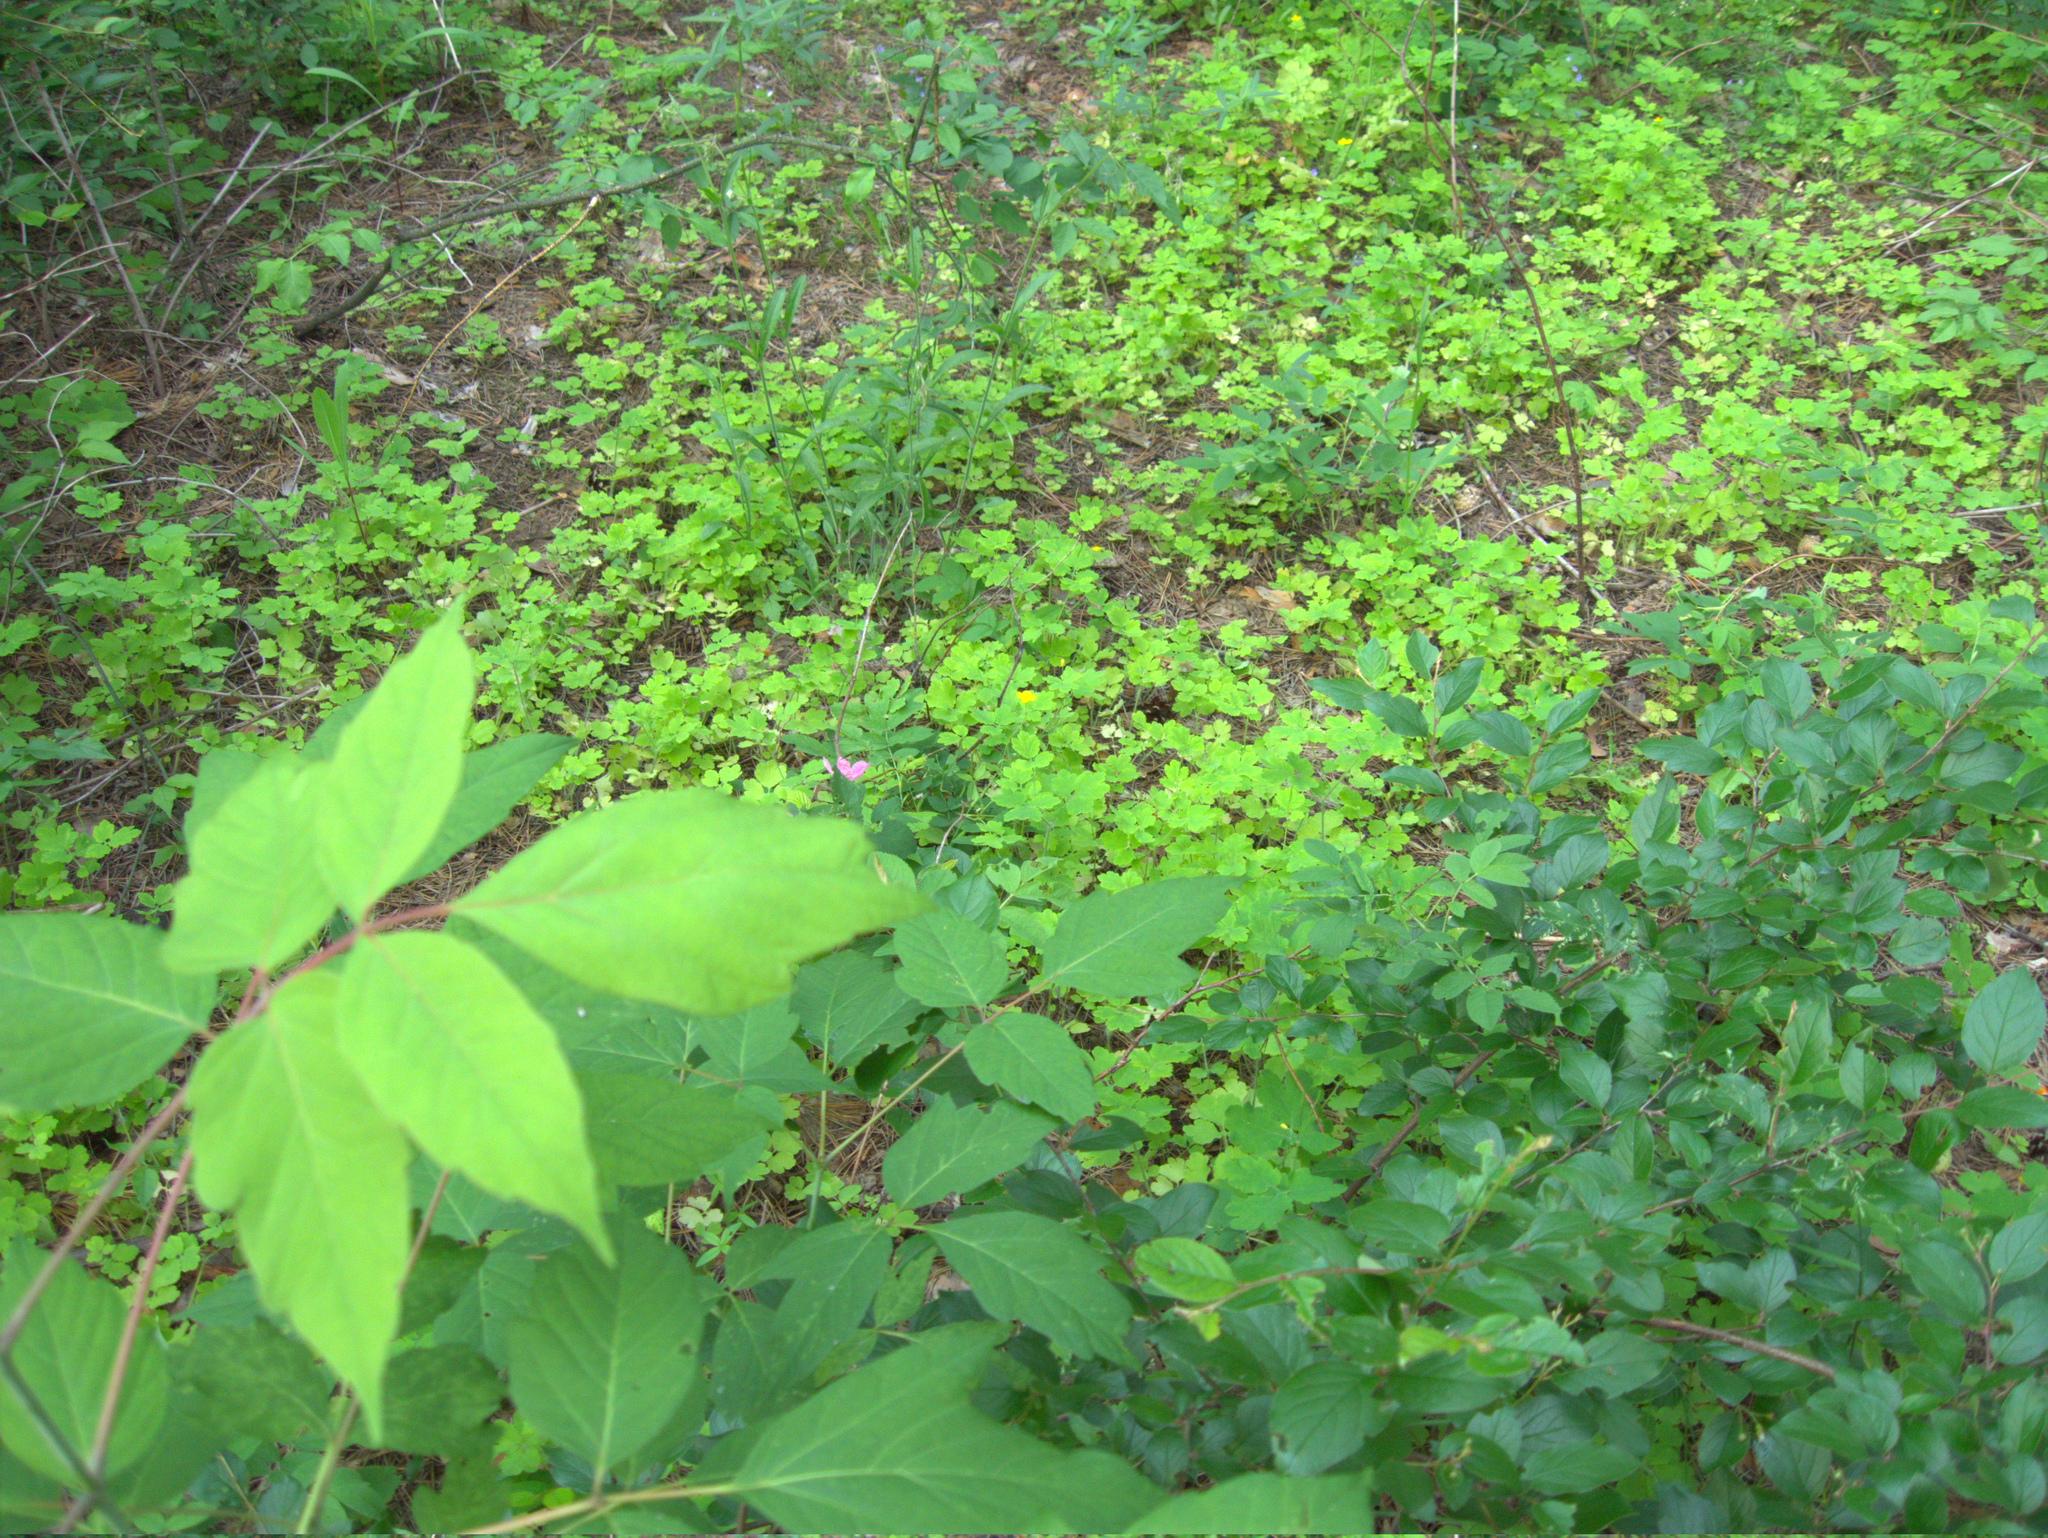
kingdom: Plantae
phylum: Tracheophyta
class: Magnoliopsida
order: Rosales
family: Rosaceae
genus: Cotoneaster
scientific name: Cotoneaster acutifolius
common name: Peking cotoneaster
